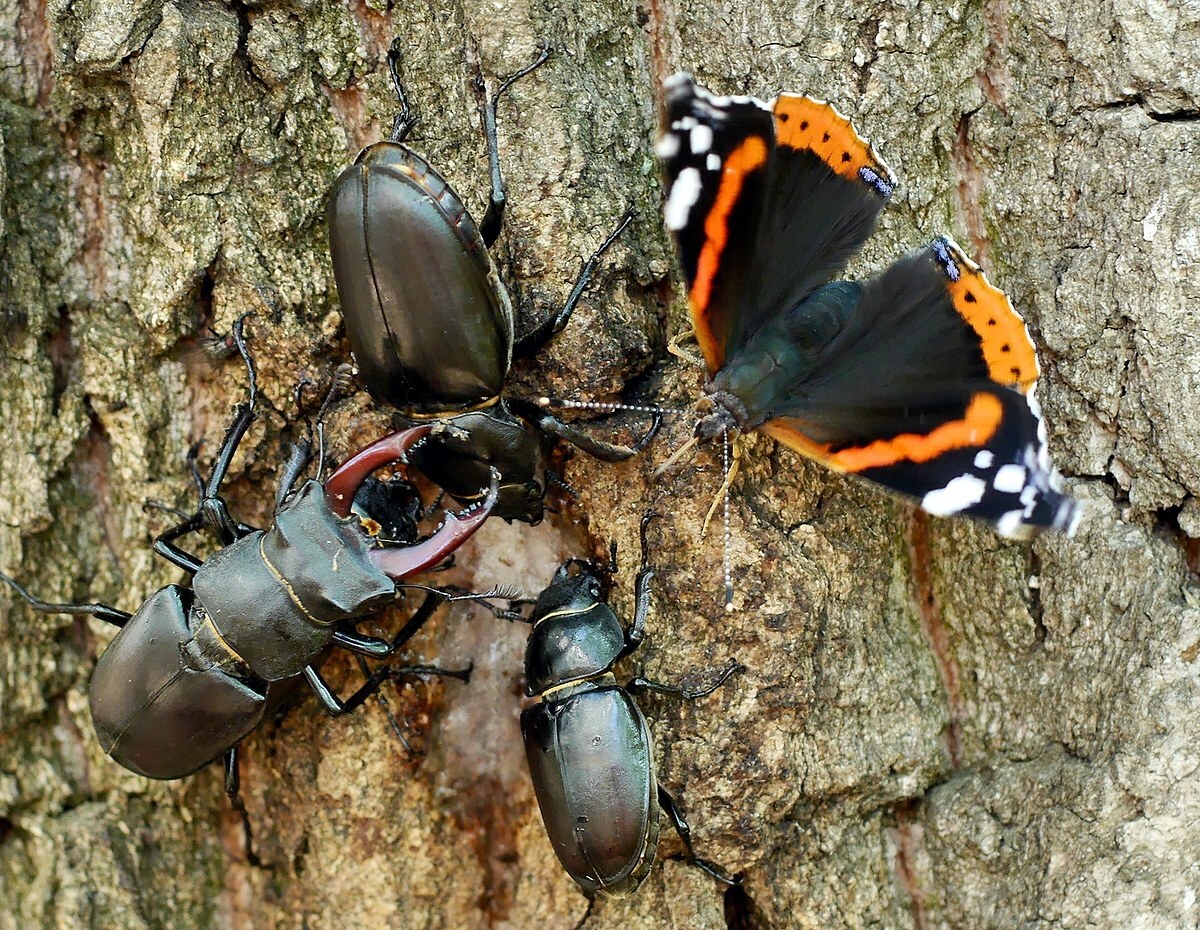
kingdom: Animalia
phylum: Arthropoda
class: Insecta
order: Lepidoptera
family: Nymphalidae
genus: Vanessa
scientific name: Vanessa atalanta
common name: Red admiral
